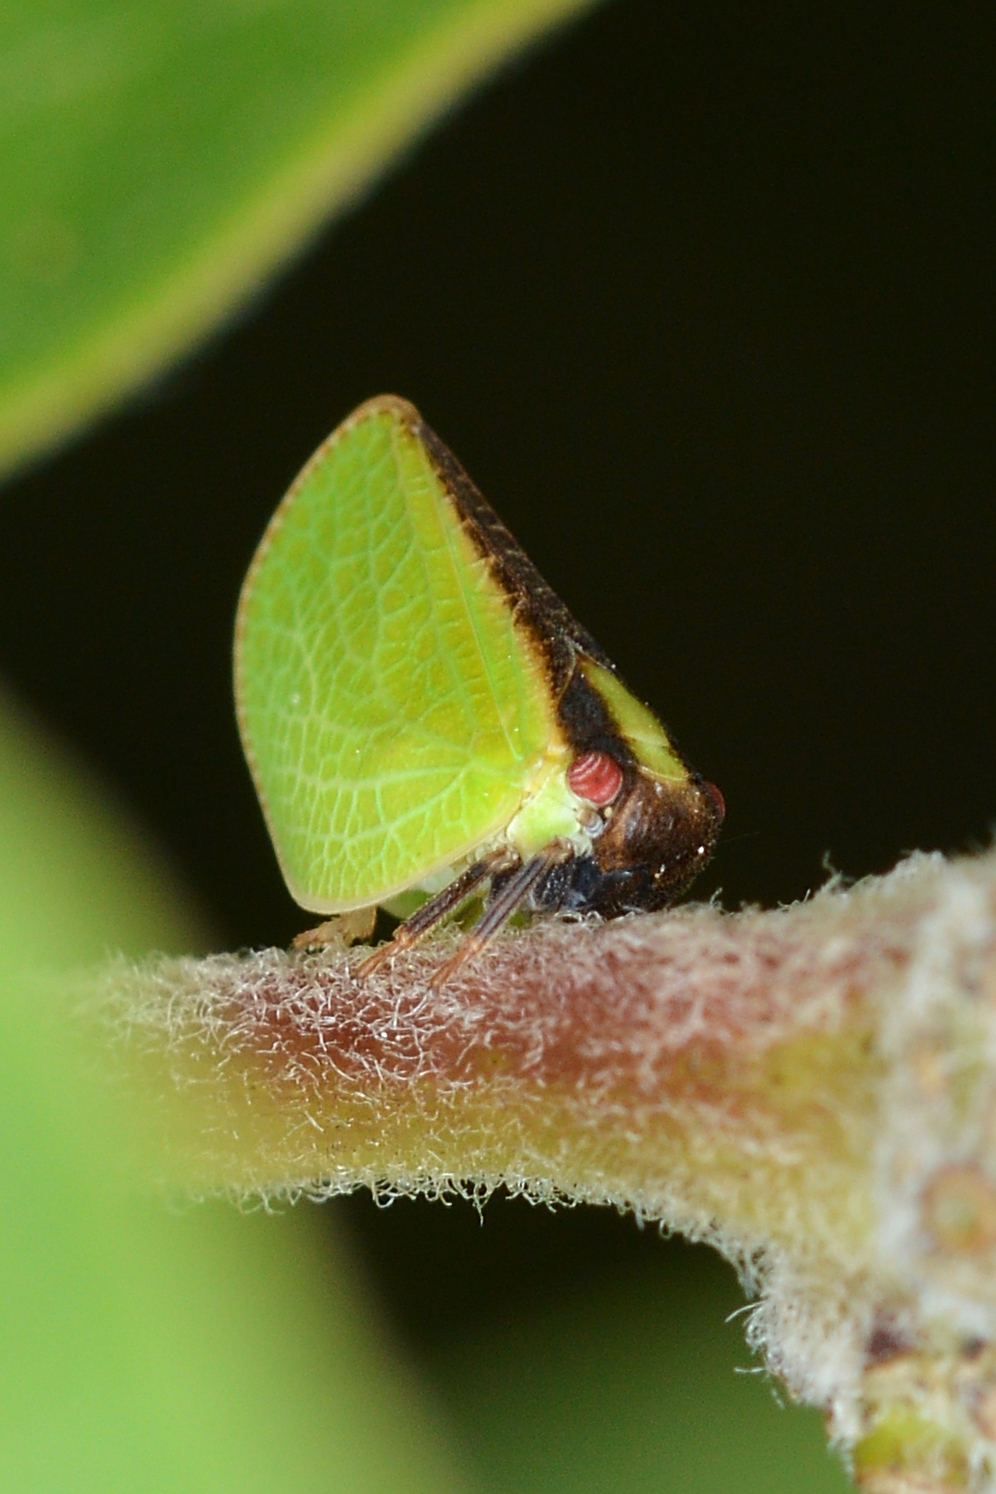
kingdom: Animalia
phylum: Arthropoda
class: Insecta
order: Hemiptera
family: Acanaloniidae
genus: Acanalonia
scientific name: Acanalonia bivittata
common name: Two-striped planthopper
